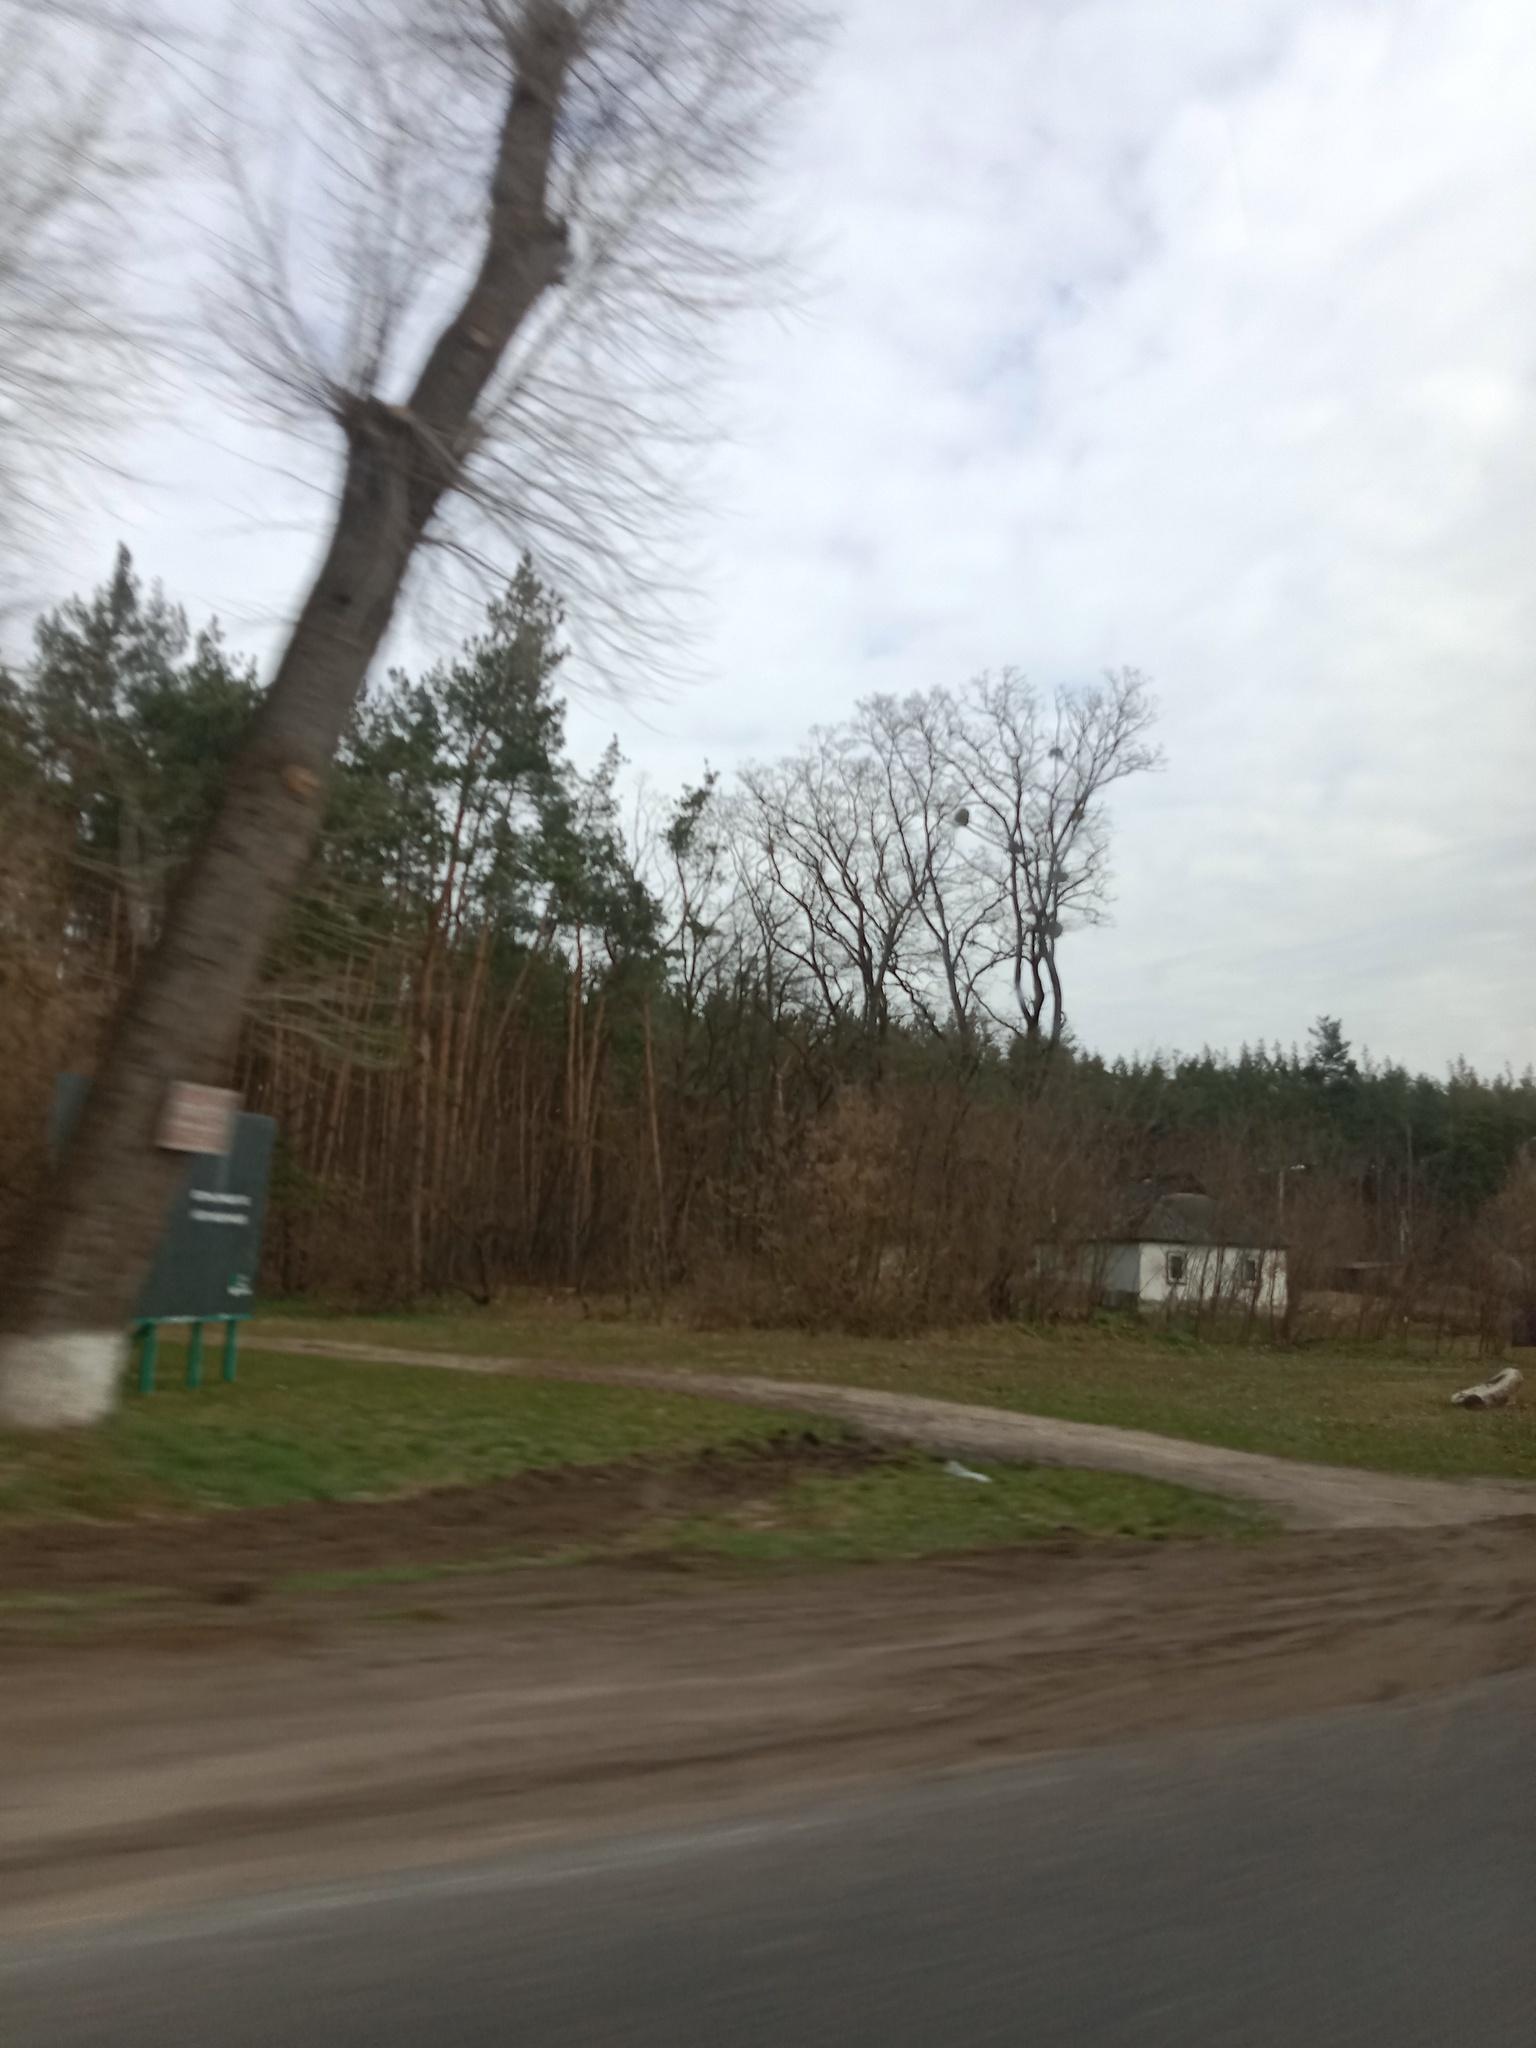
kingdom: Plantae
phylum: Tracheophyta
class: Magnoliopsida
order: Santalales
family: Viscaceae
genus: Viscum
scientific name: Viscum album
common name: Mistletoe
